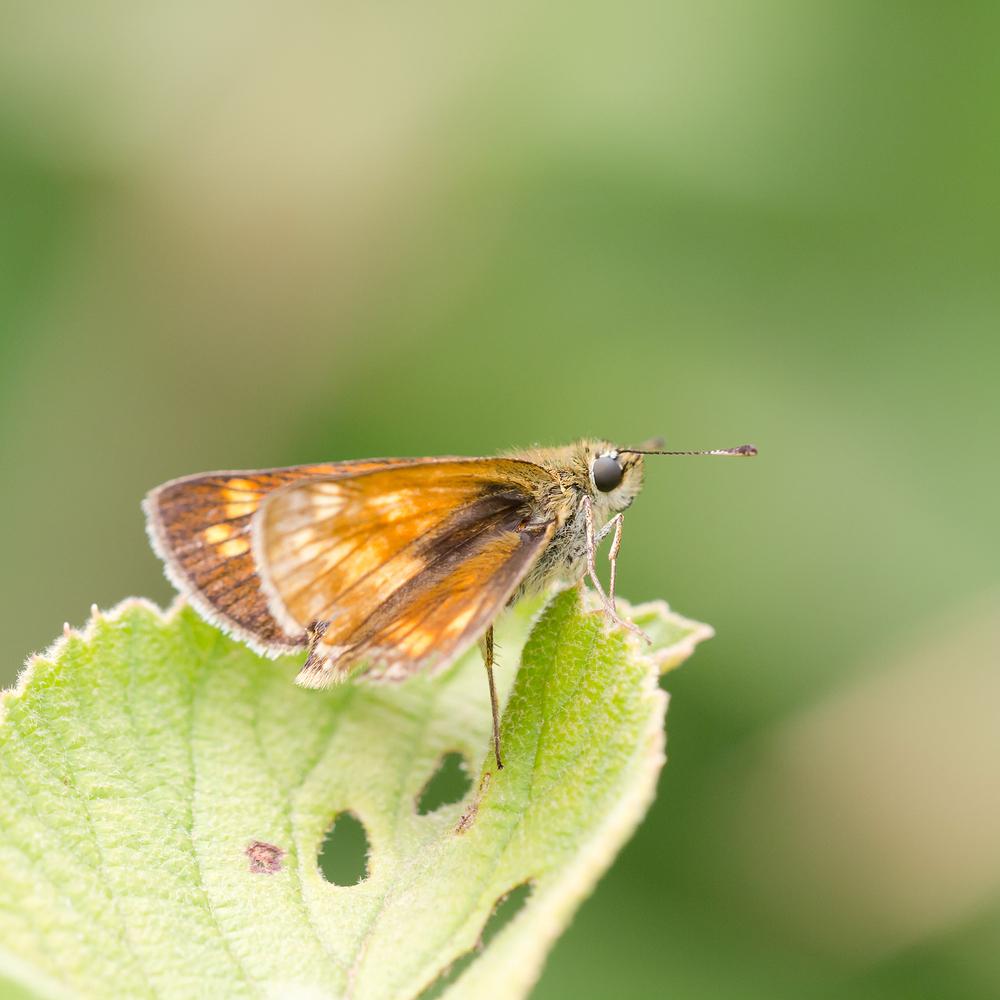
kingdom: Animalia
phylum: Arthropoda
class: Insecta
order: Lepidoptera
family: Hesperiidae
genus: Ochlodes
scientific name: Ochlodes venata
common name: Large skipper
